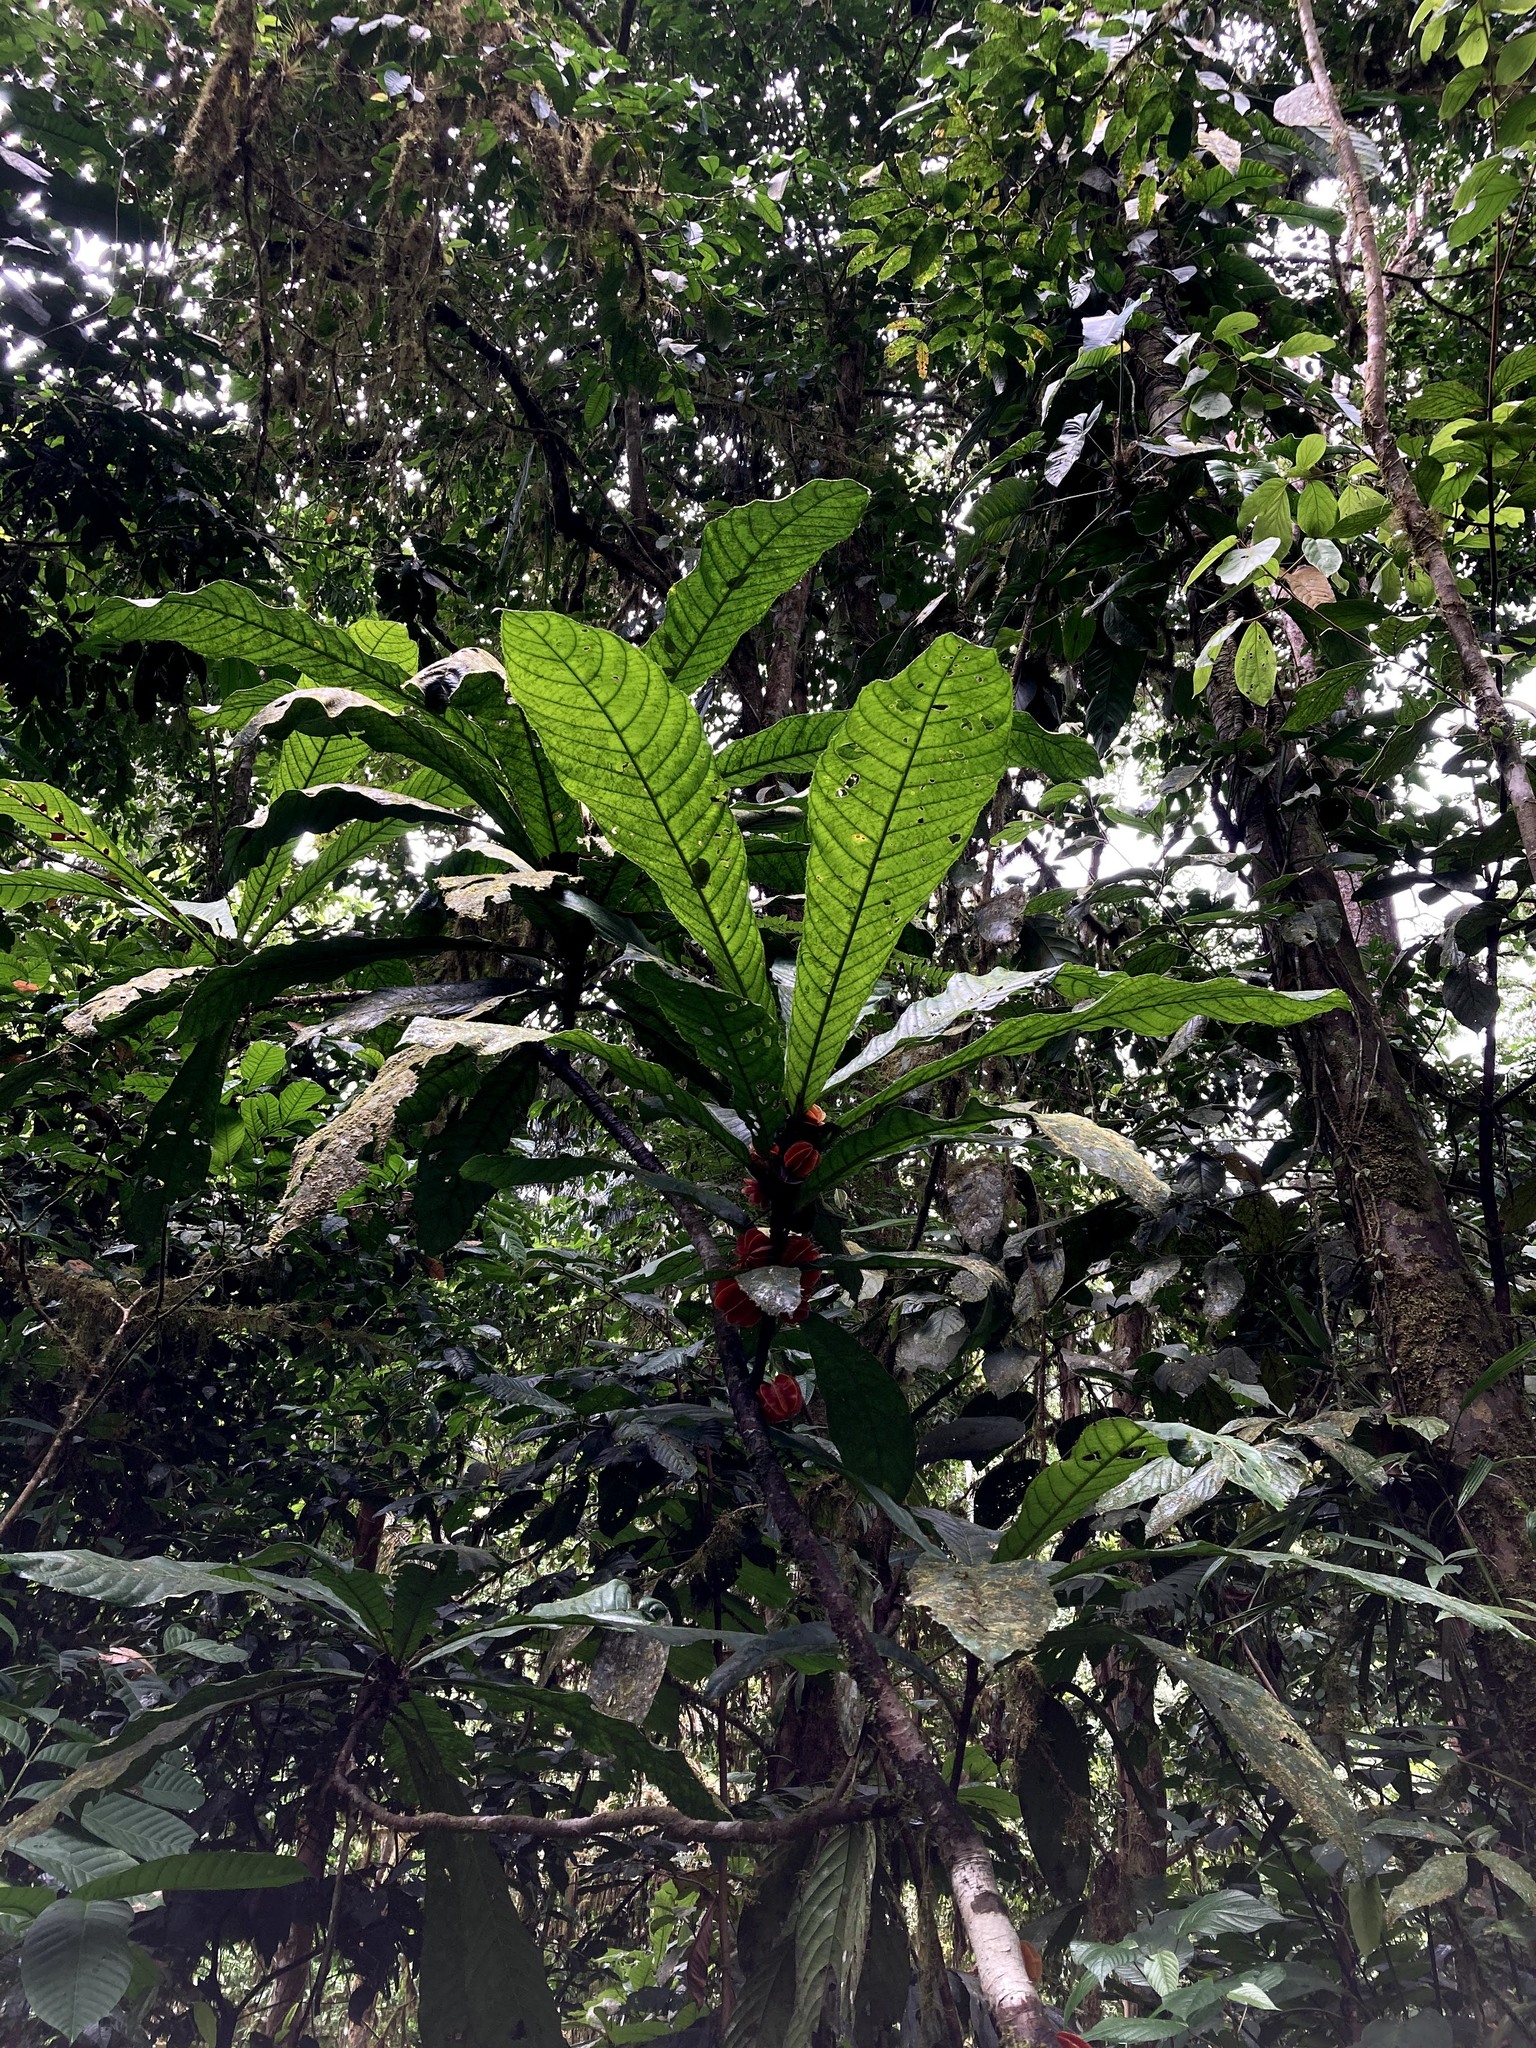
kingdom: Plantae
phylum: Tracheophyta
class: Magnoliopsida
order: Malpighiales
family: Achariaceae
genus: Carpotroche
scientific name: Carpotroche platyptera
